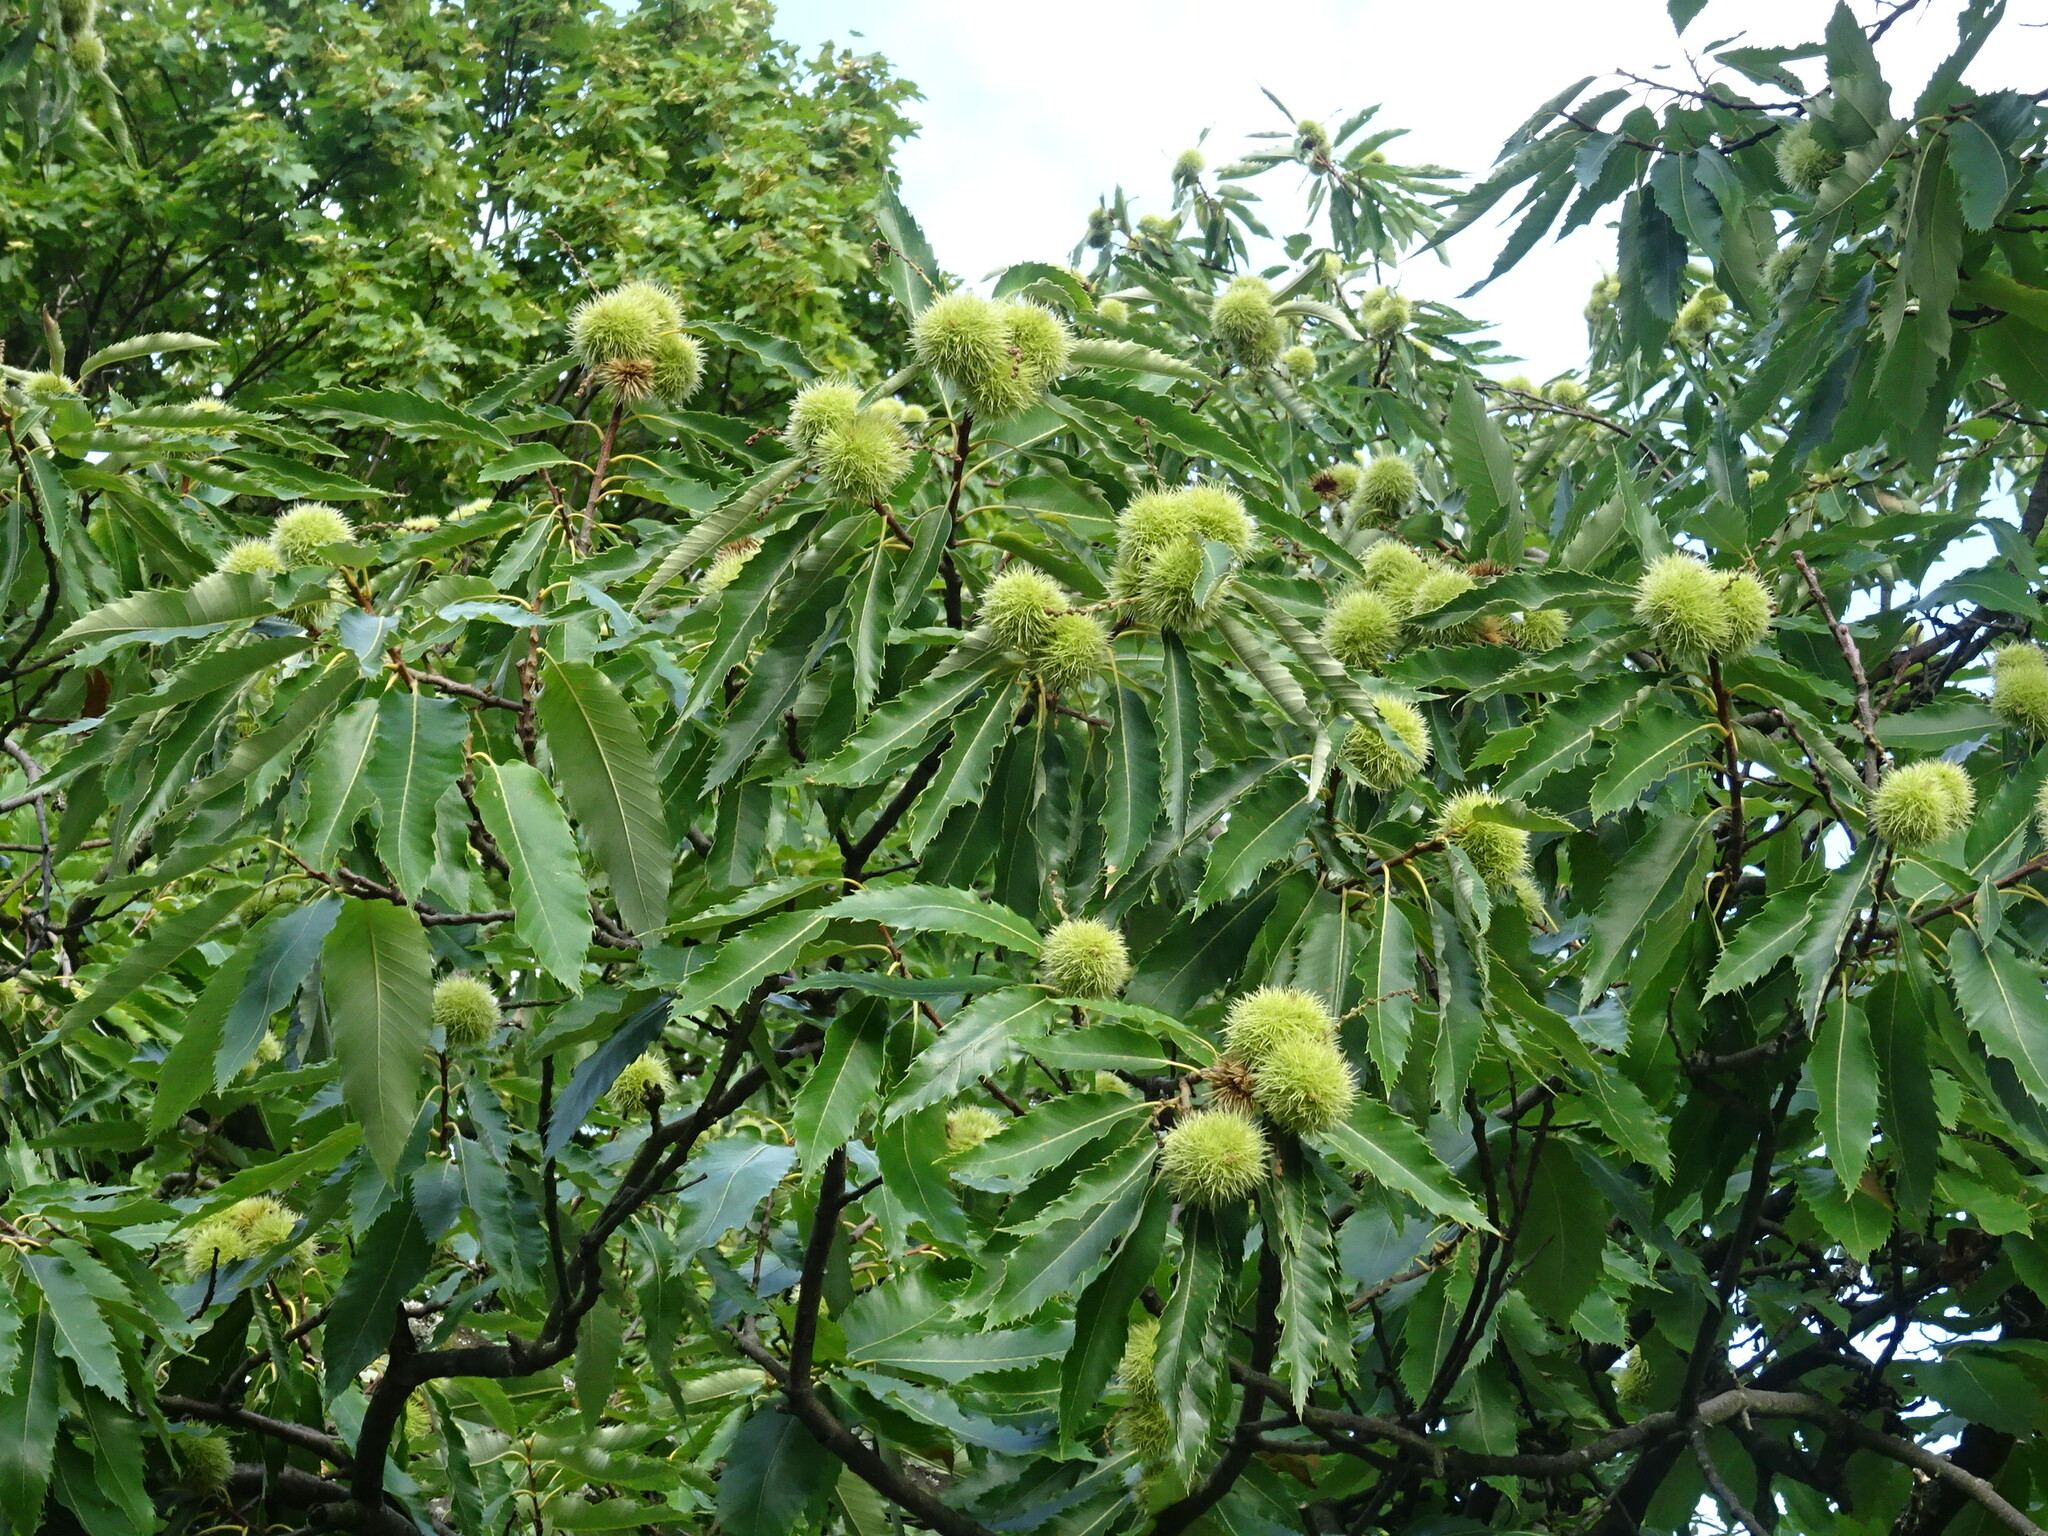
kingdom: Plantae
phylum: Tracheophyta
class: Magnoliopsida
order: Fagales
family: Fagaceae
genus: Castanea
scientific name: Castanea sativa
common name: Sweet chestnut
